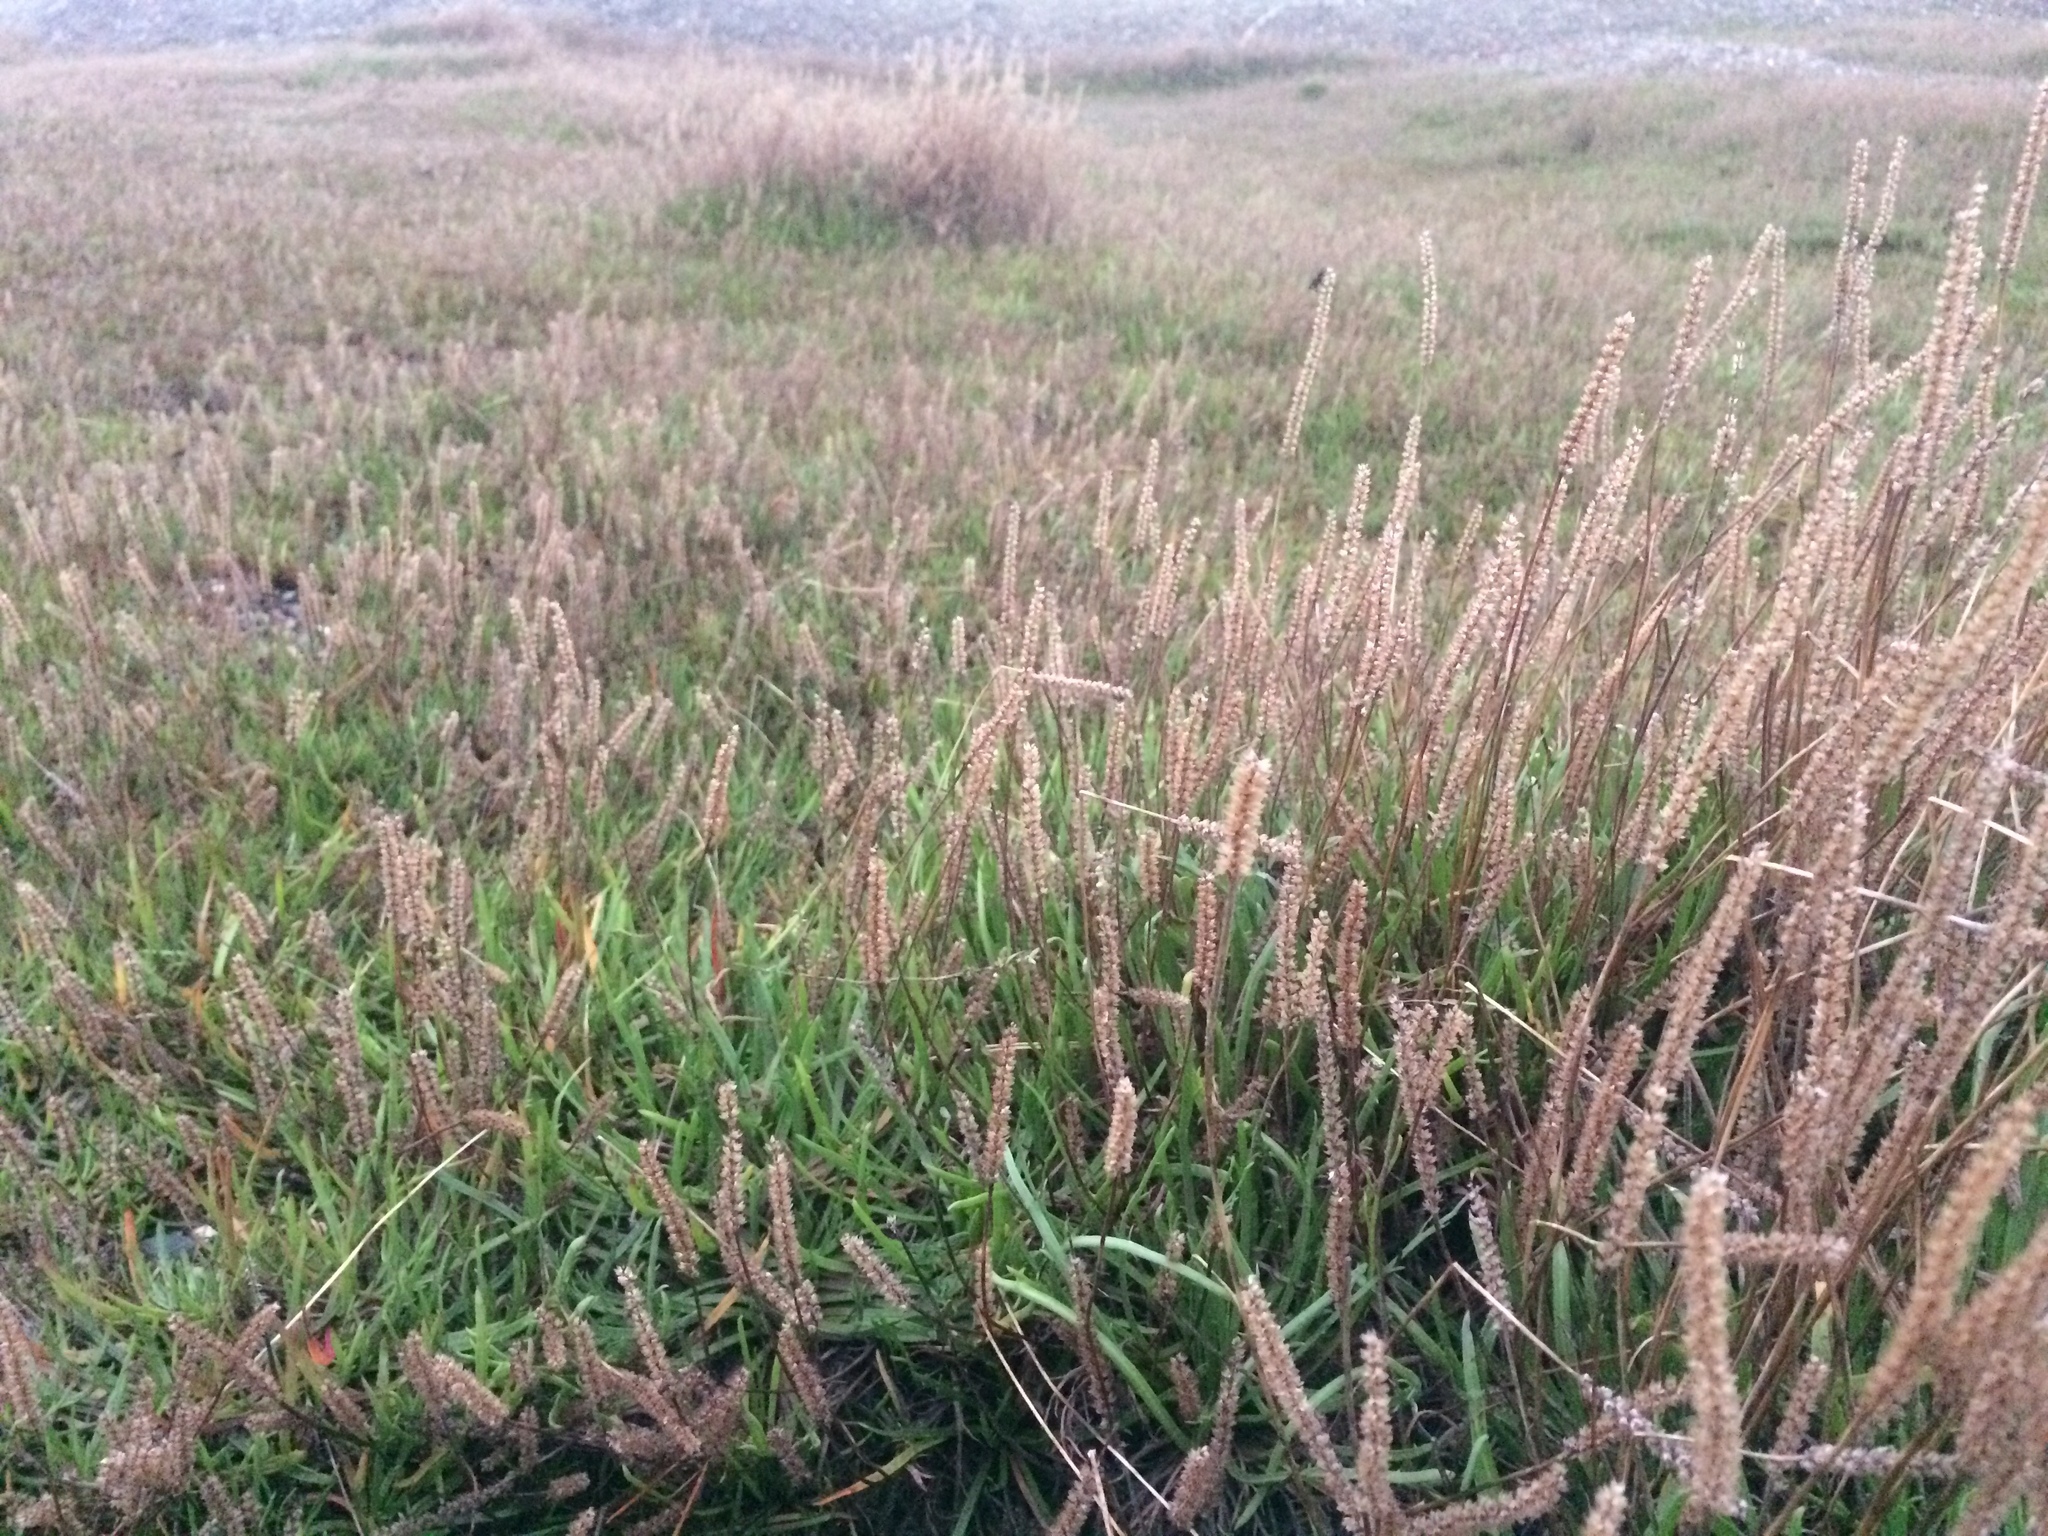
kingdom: Plantae
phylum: Tracheophyta
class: Magnoliopsida
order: Lamiales
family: Plantaginaceae
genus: Plantago
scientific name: Plantago coronopus
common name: Buck's-horn plantain
